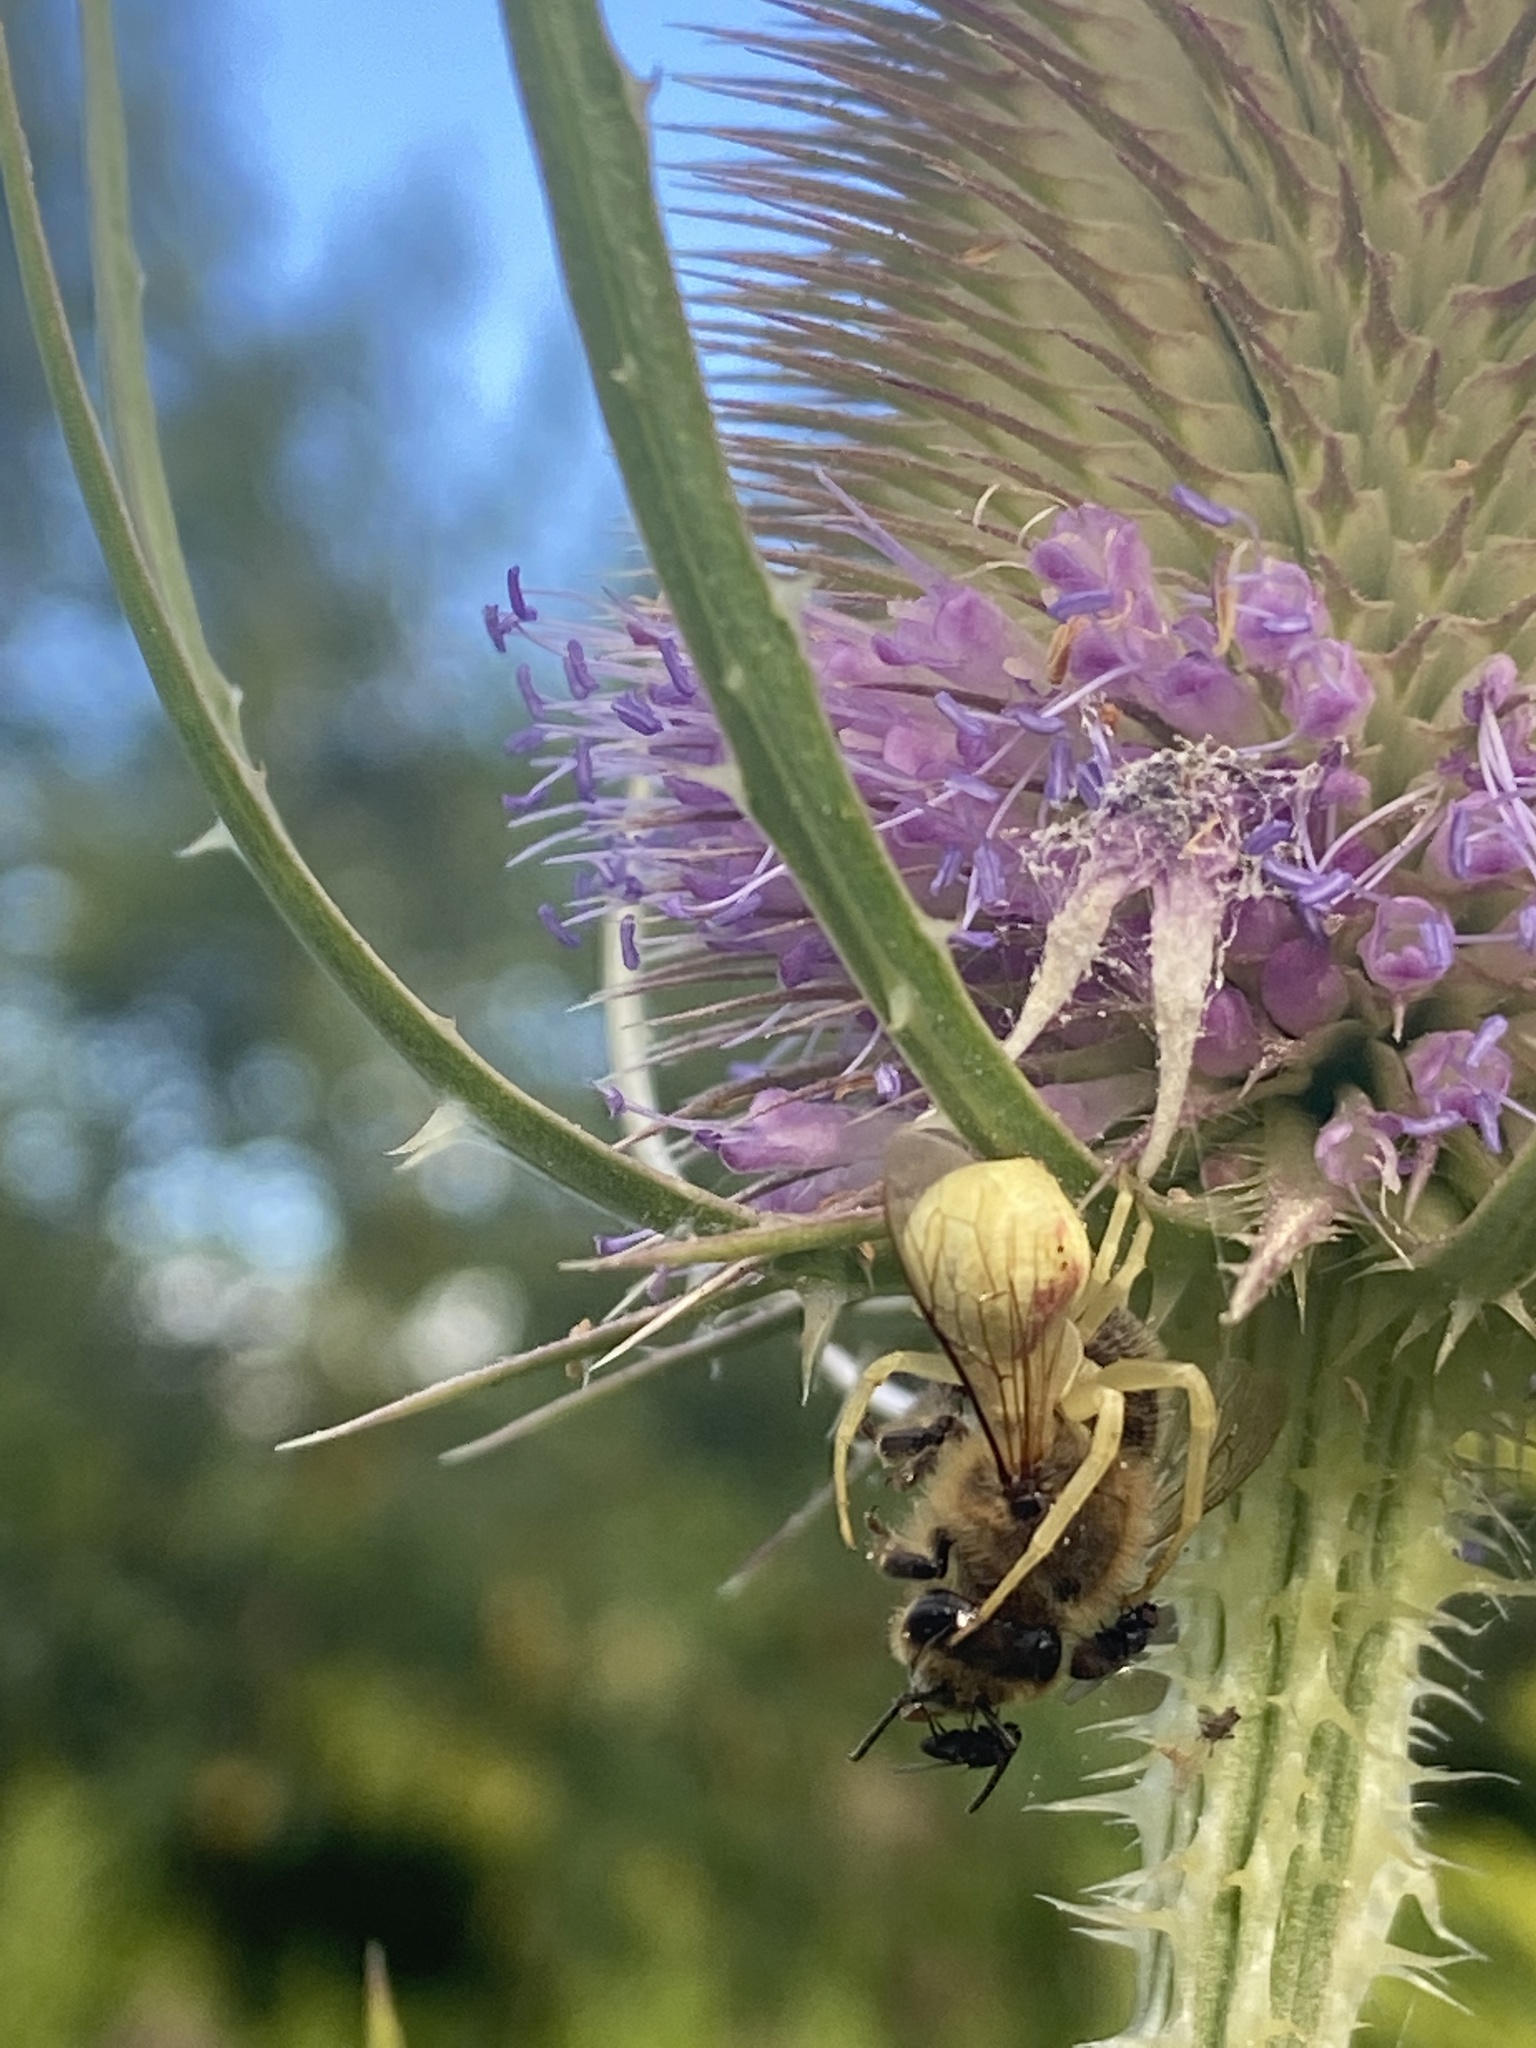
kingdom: Animalia
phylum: Arthropoda
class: Arachnida
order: Araneae
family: Thomisidae
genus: Misumena
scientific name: Misumena vatia
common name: Goldenrod crab spider
